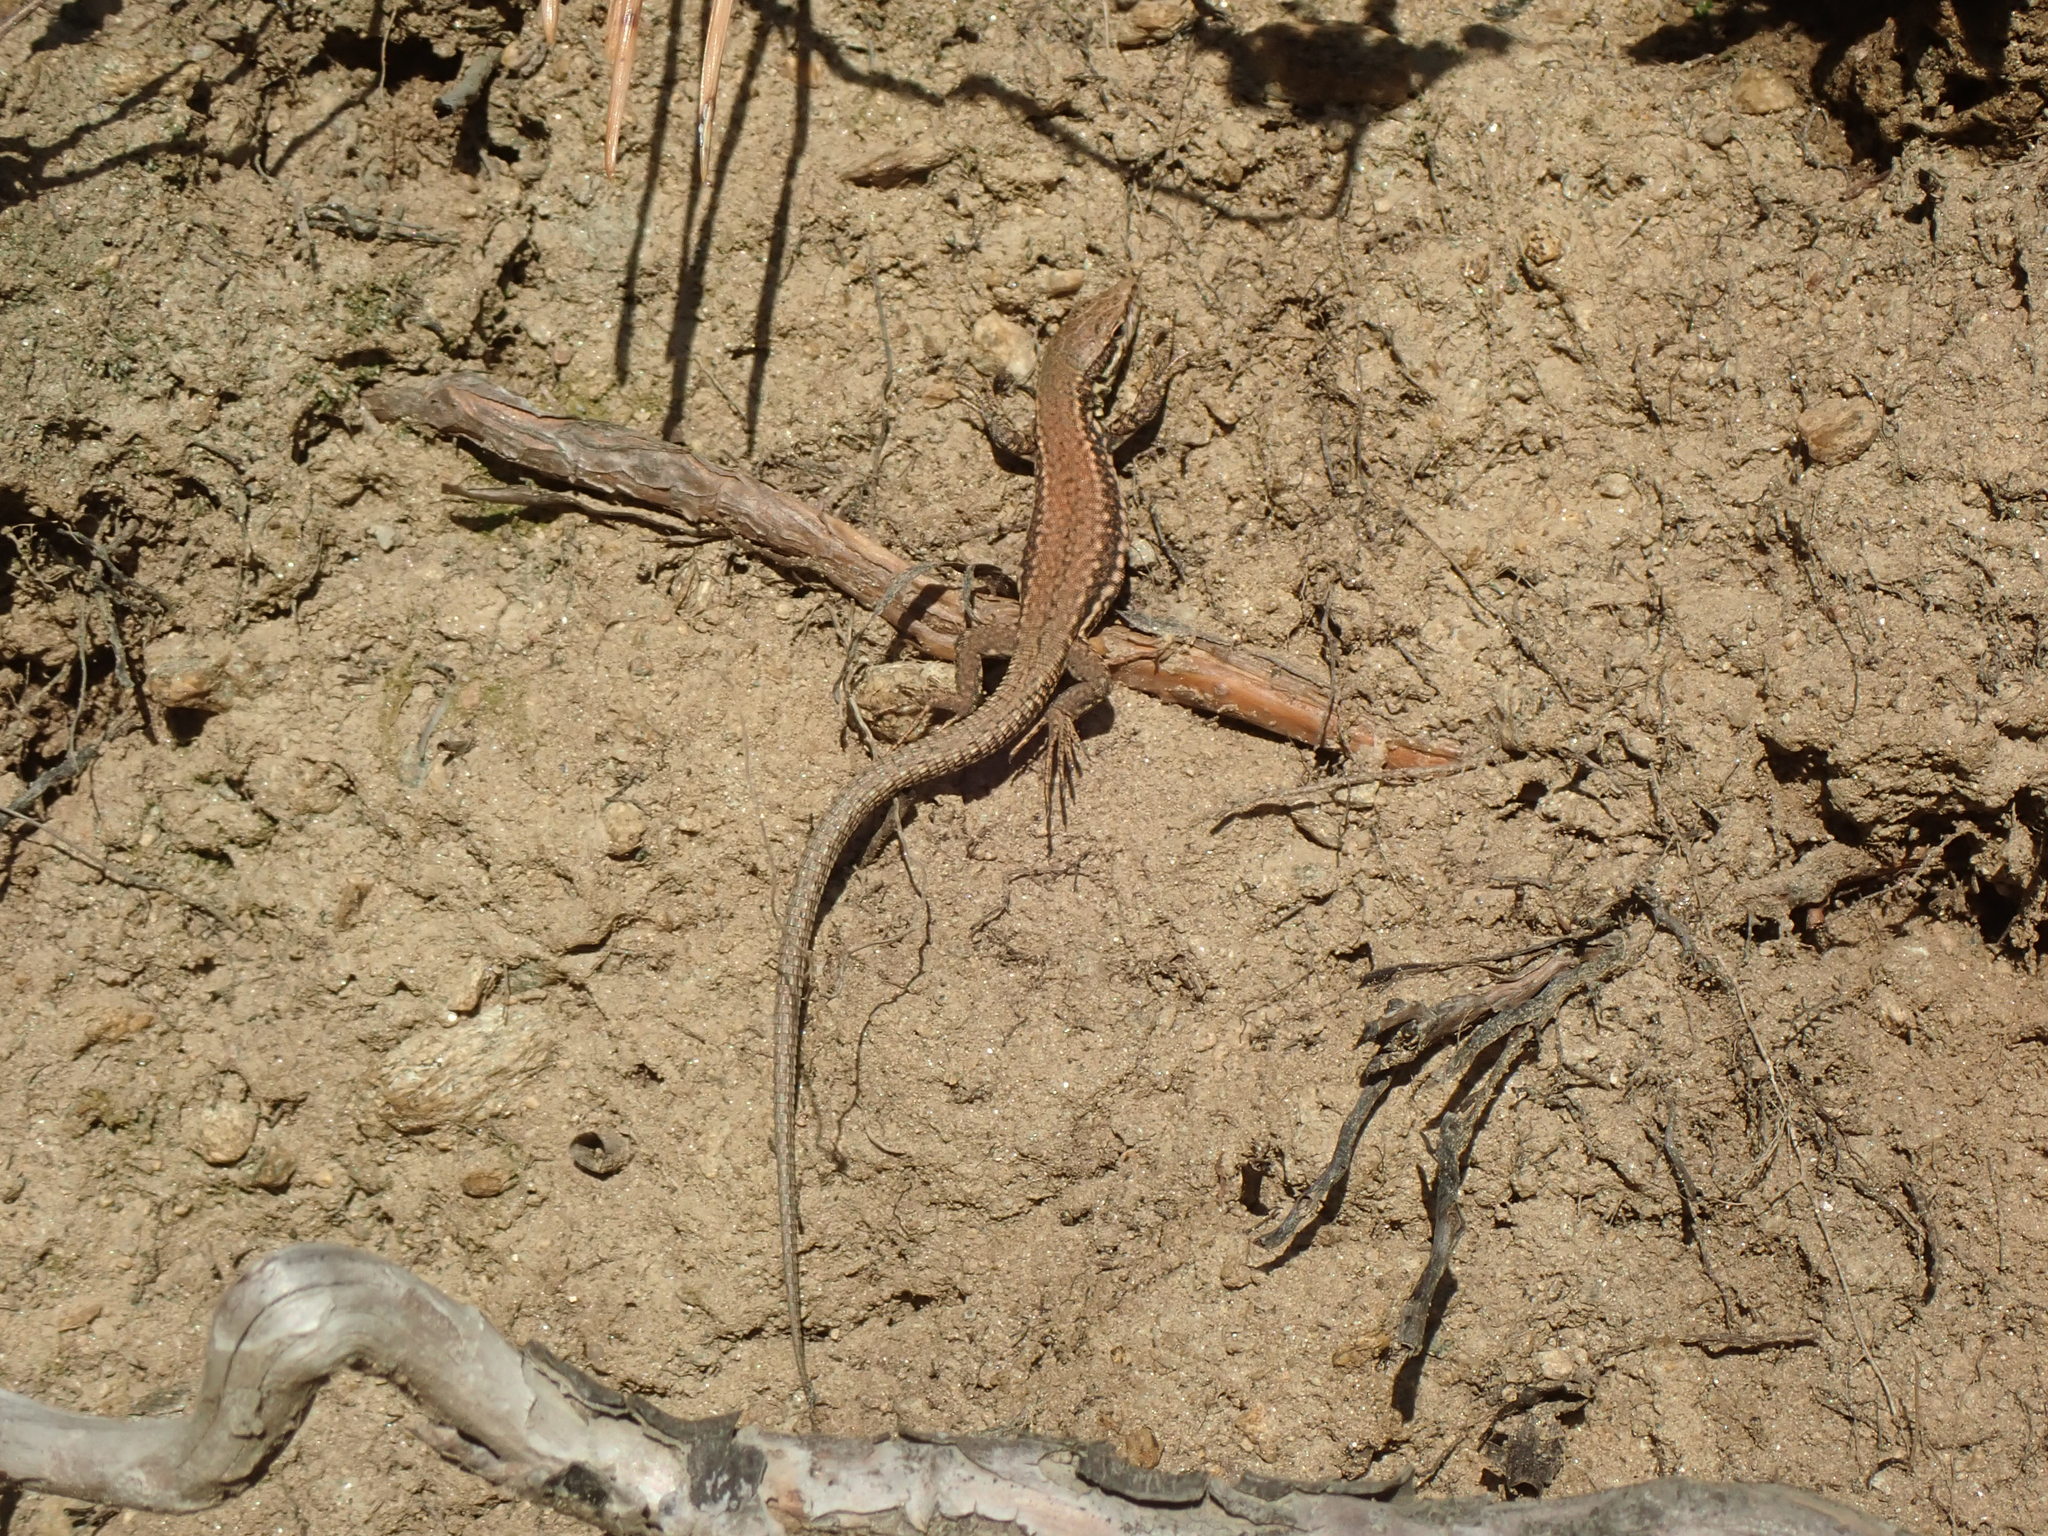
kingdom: Animalia
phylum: Chordata
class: Squamata
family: Lacertidae
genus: Podarcis
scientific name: Podarcis muralis
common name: Common wall lizard
